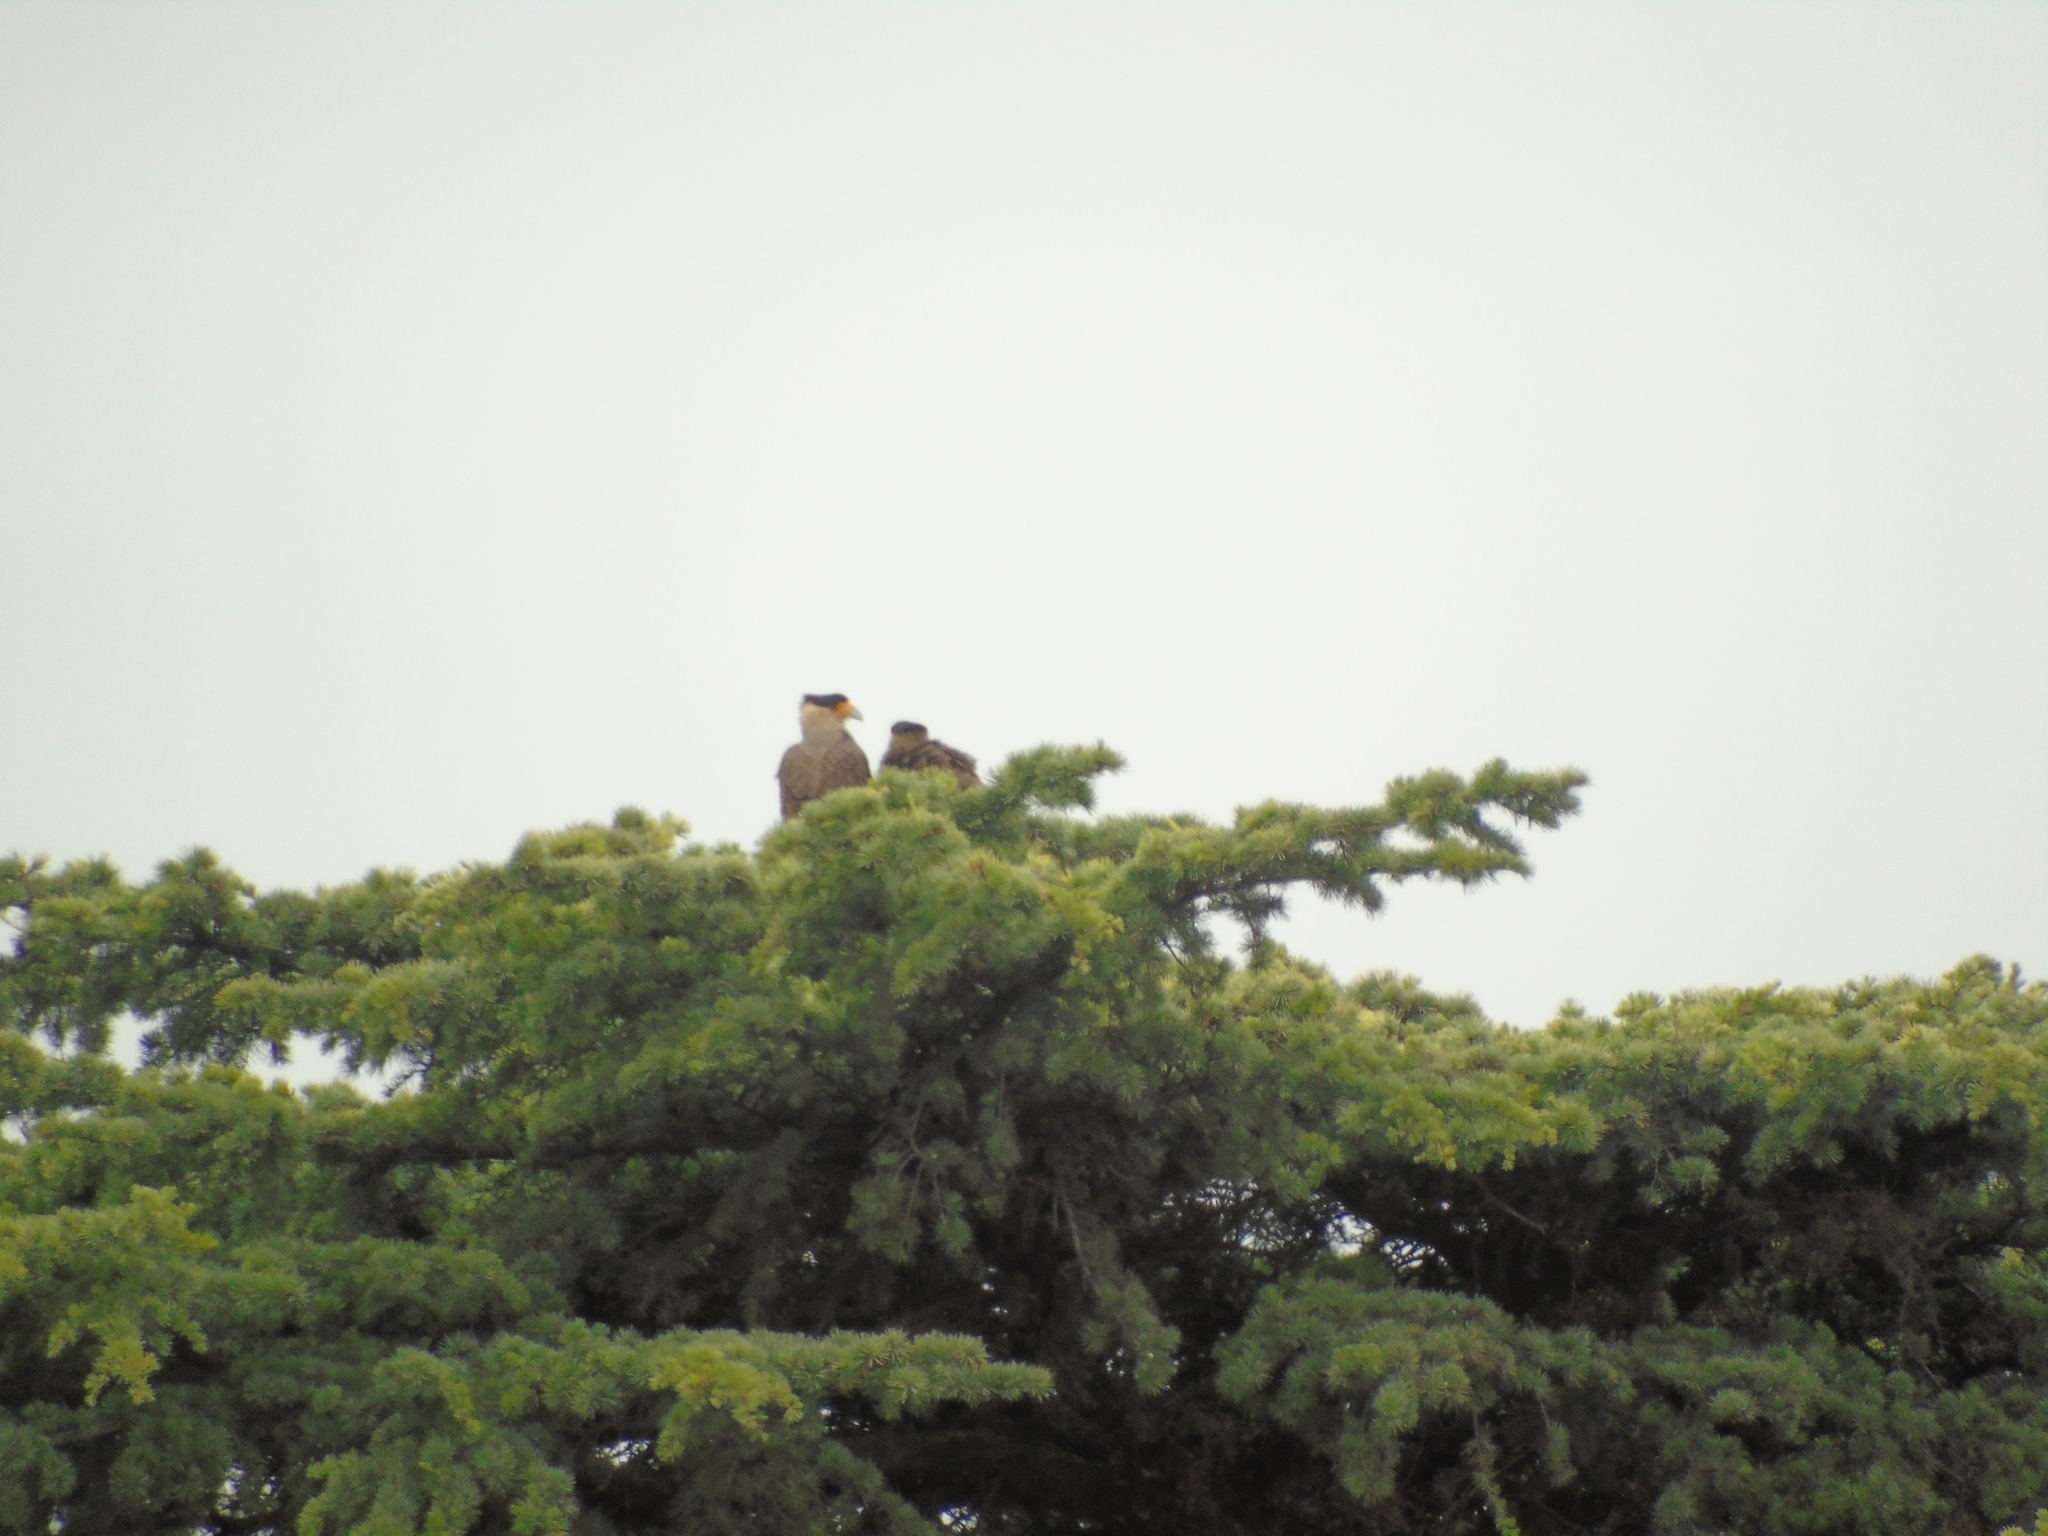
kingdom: Animalia
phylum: Chordata
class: Aves
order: Falconiformes
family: Falconidae
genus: Caracara
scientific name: Caracara plancus
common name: Southern caracara
